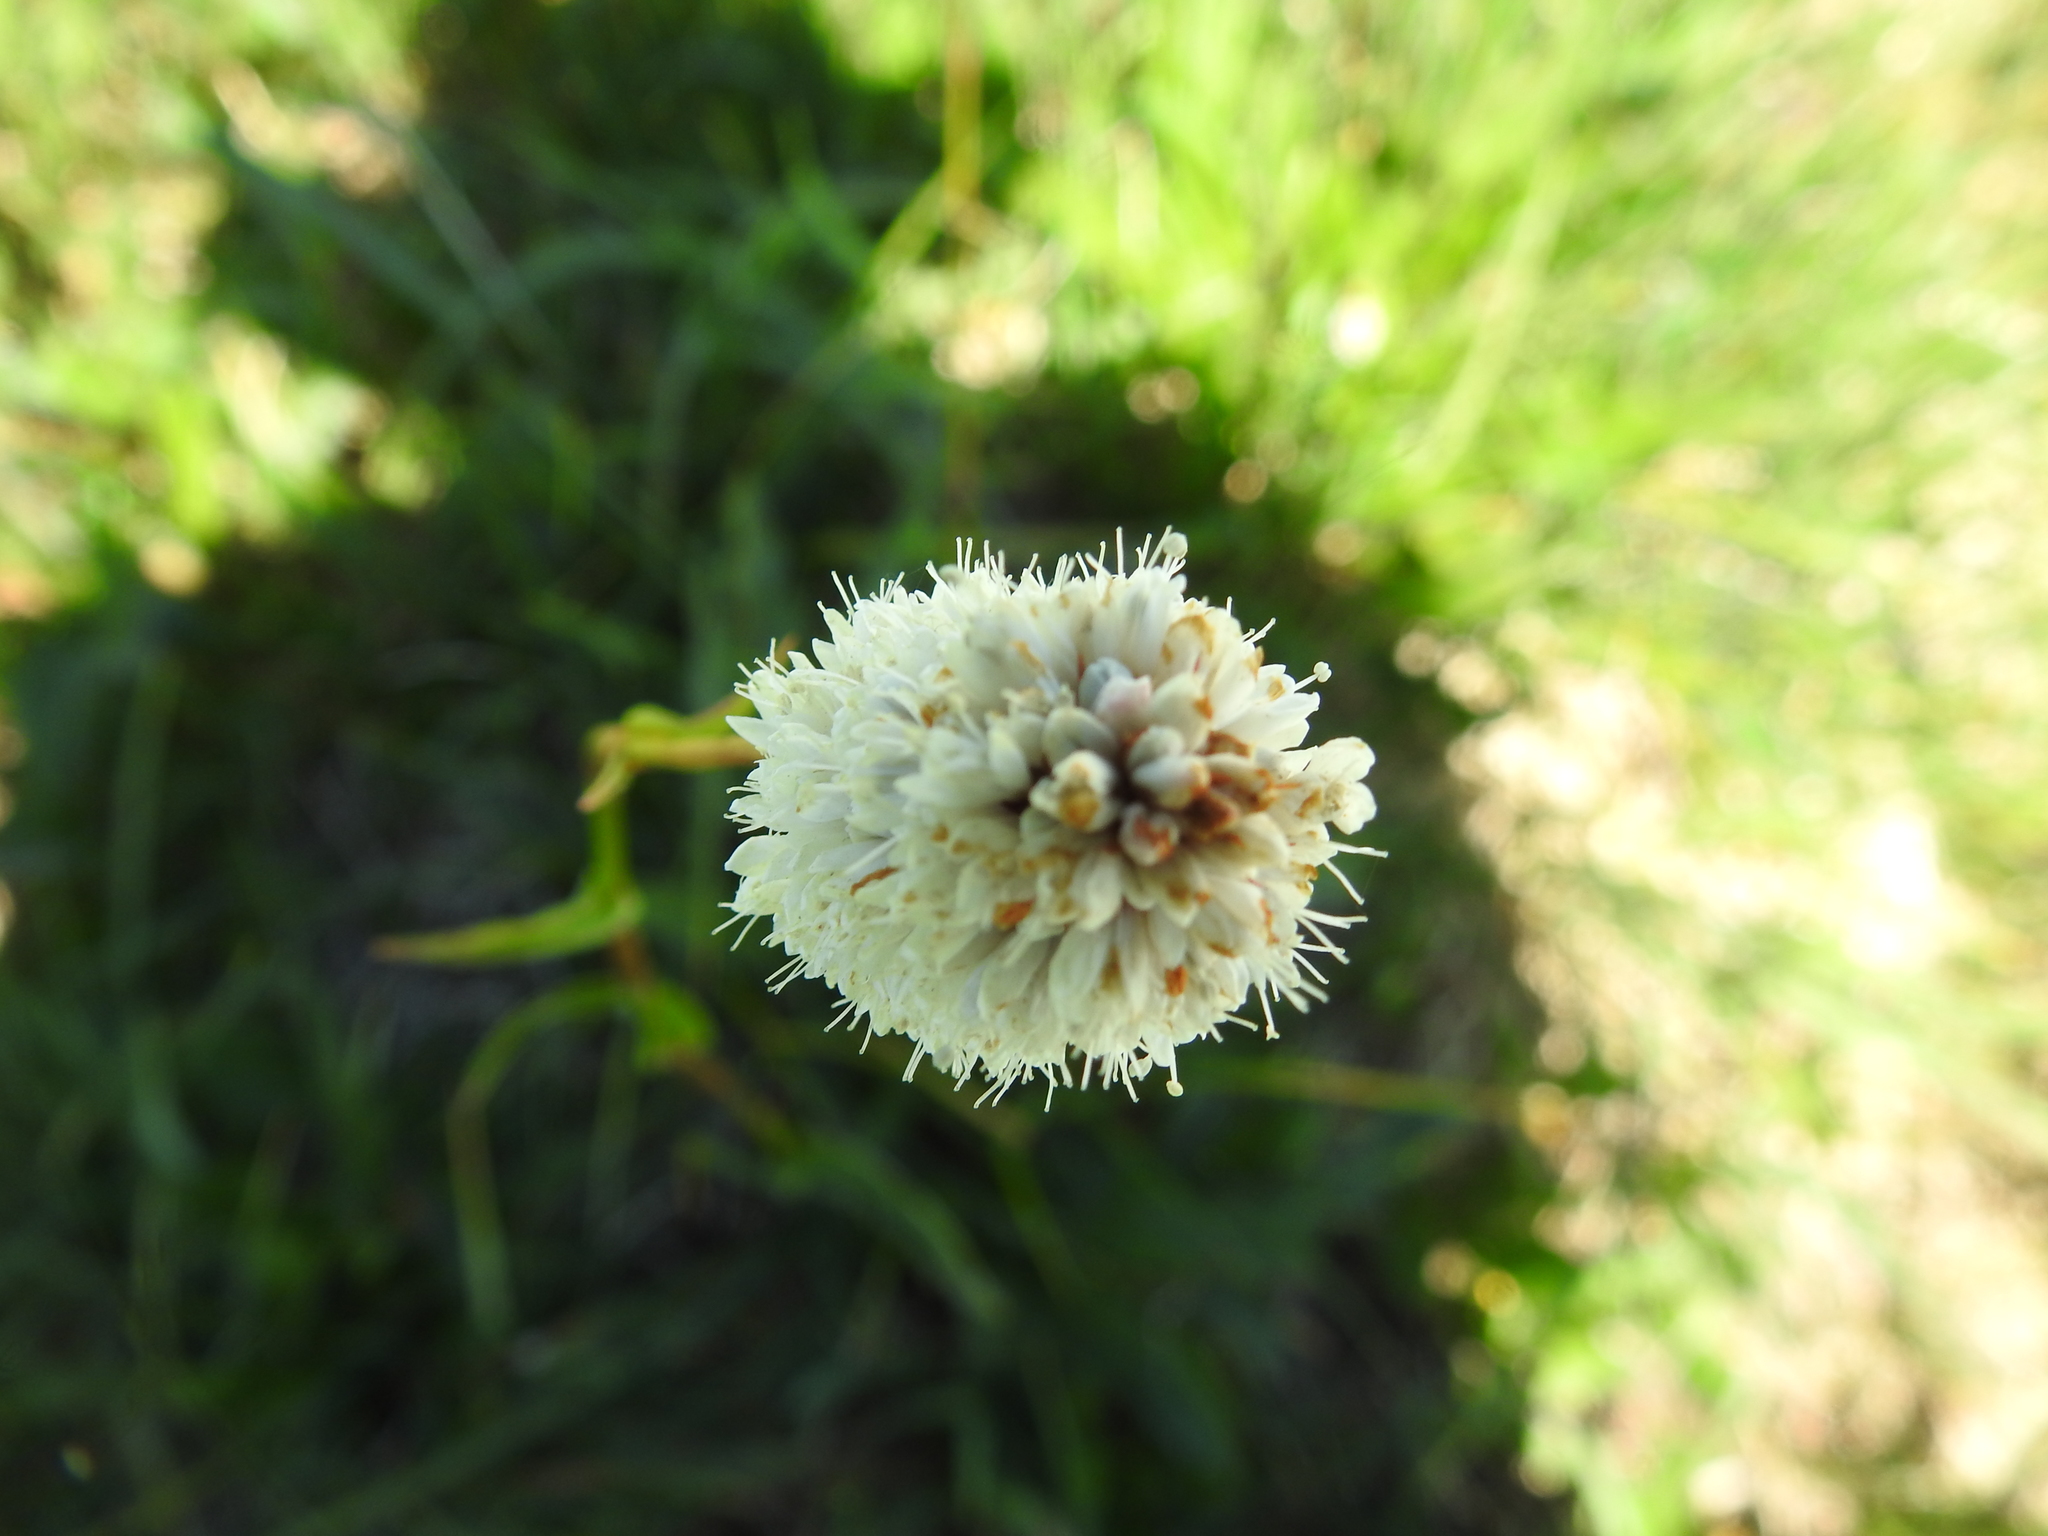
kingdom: Plantae
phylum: Tracheophyta
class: Magnoliopsida
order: Caryophyllales
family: Polygonaceae
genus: Bistorta
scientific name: Bistorta bistortoides
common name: American bistort
